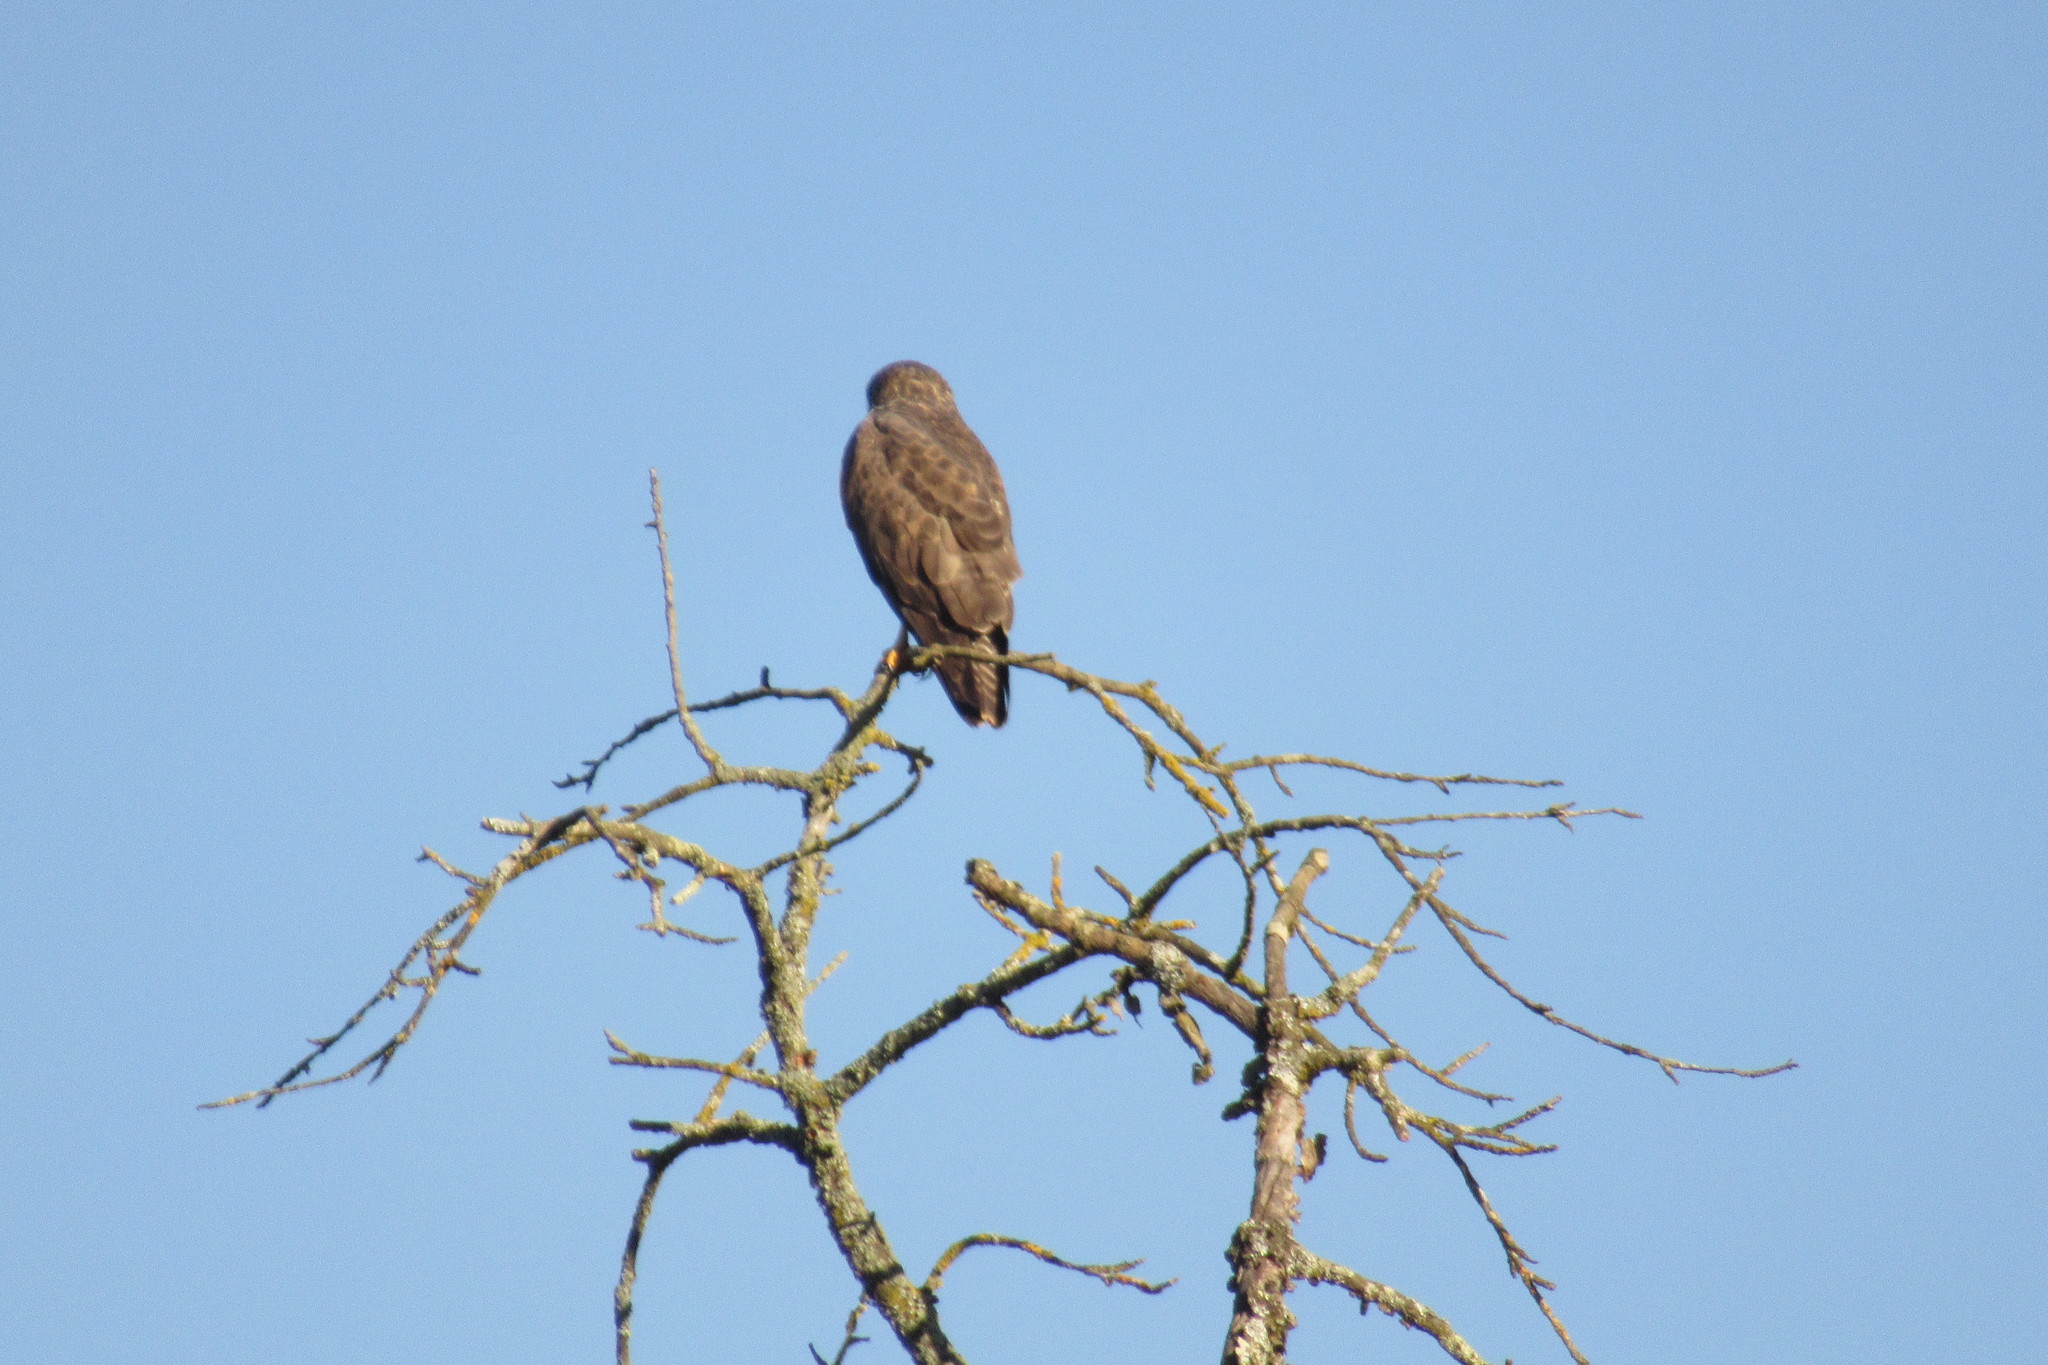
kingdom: Animalia
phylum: Chordata
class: Aves
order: Accipitriformes
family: Accipitridae
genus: Buteo
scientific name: Buteo buteo
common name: Common buzzard
